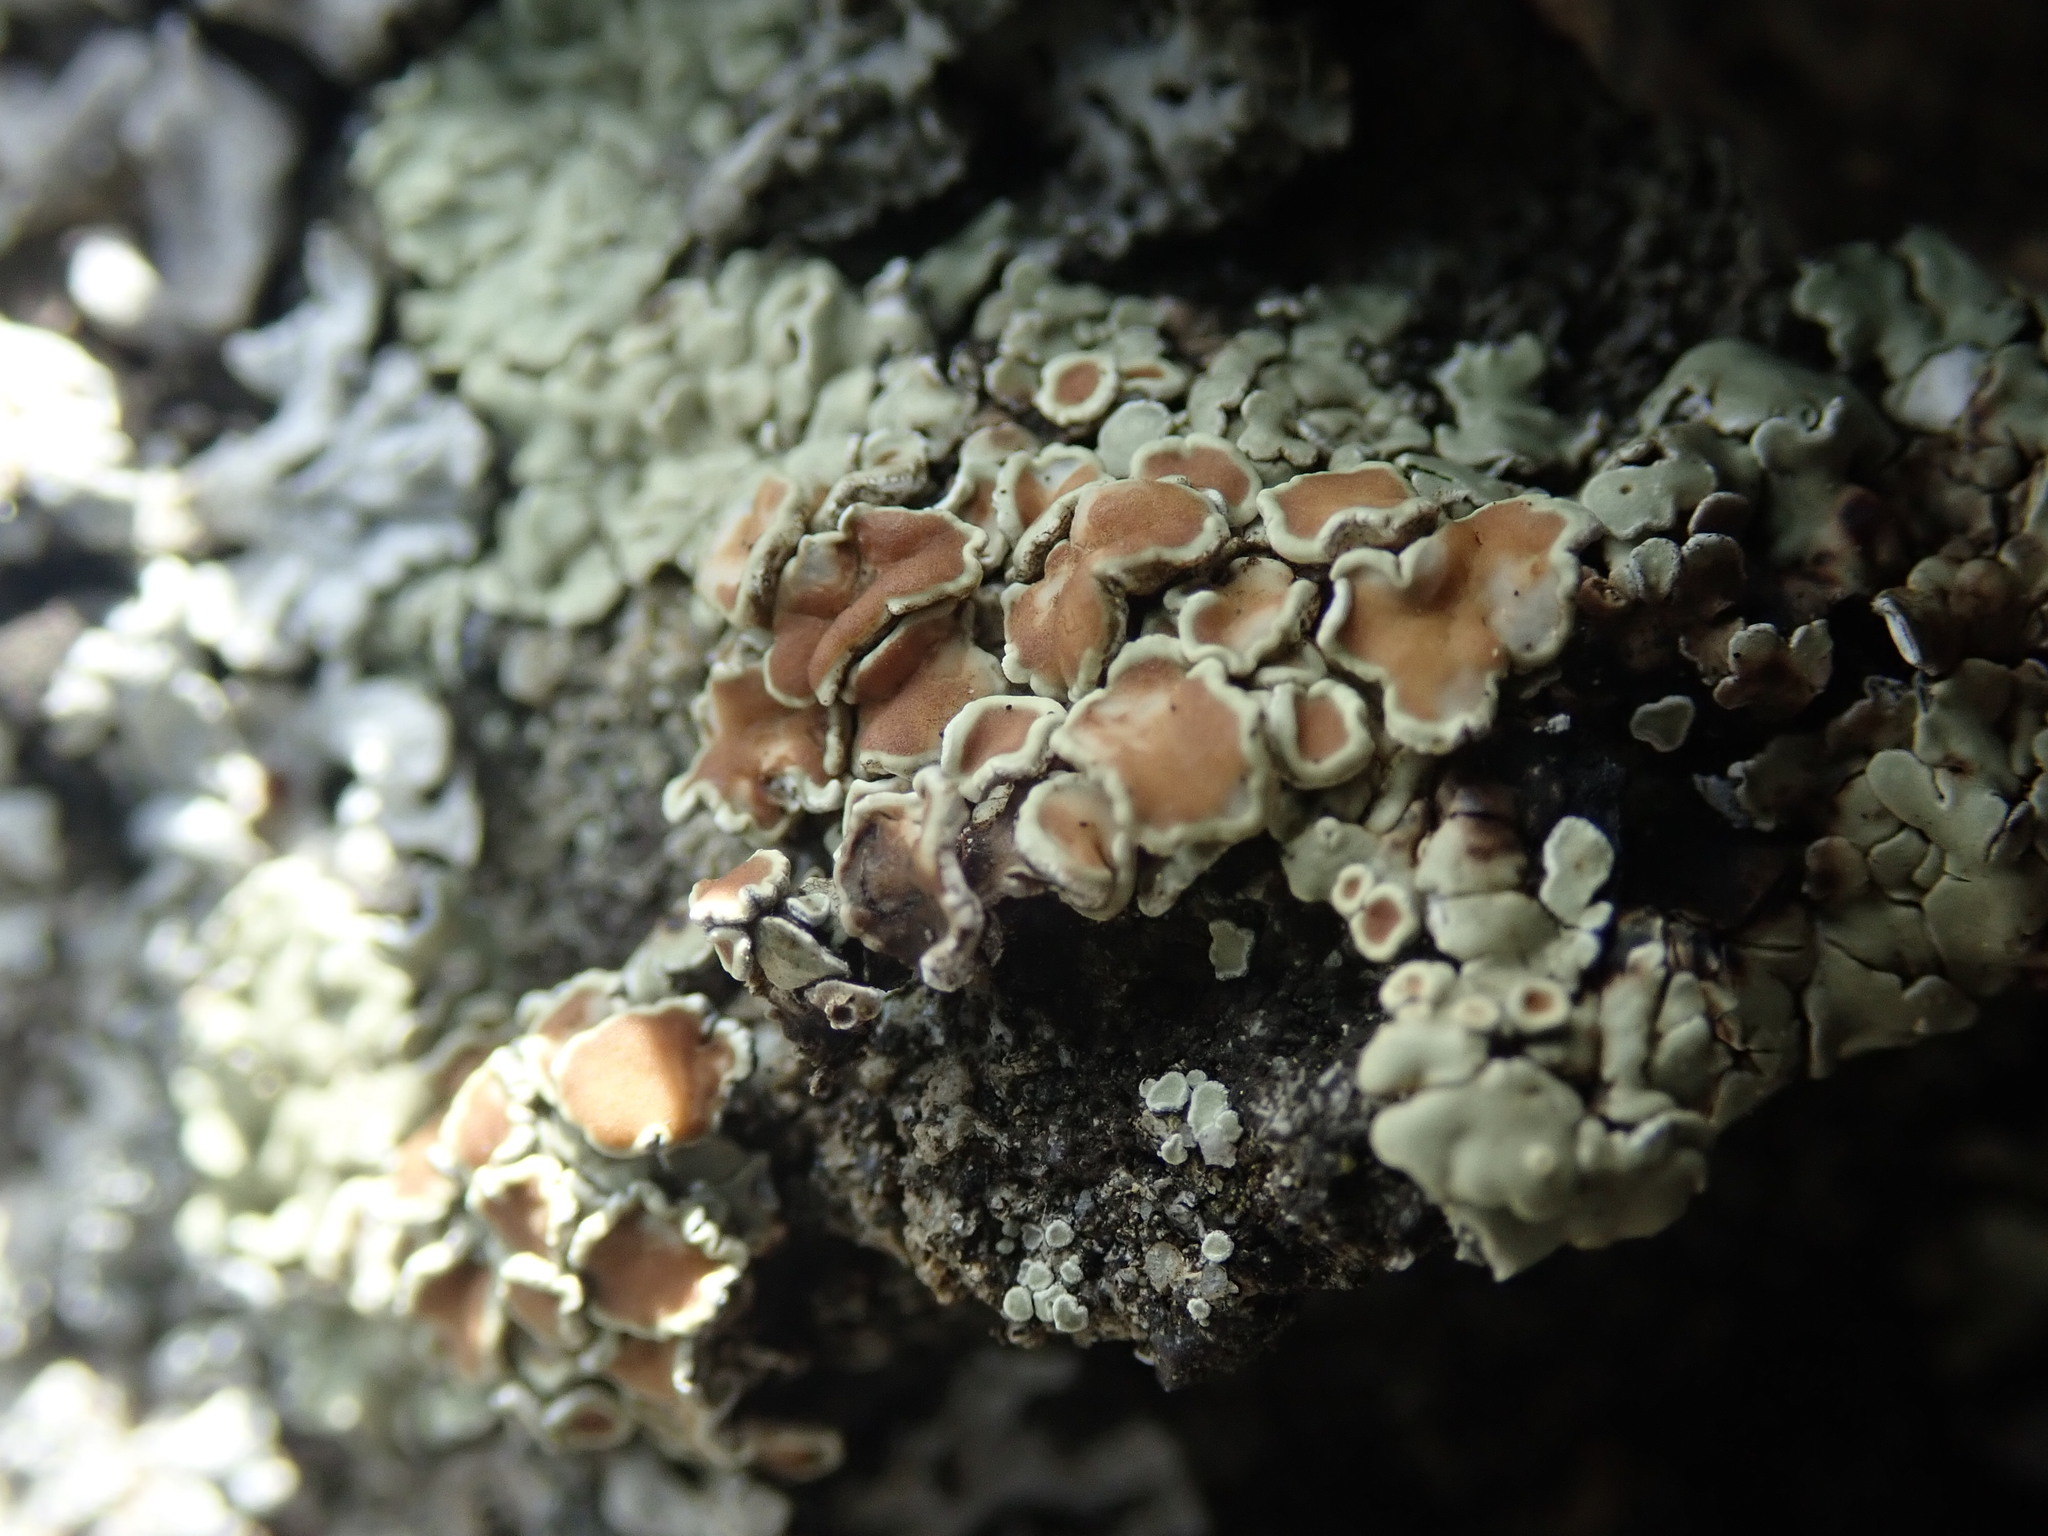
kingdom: Fungi
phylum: Ascomycota
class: Lecanoromycetes
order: Lecanorales
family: Lecanoraceae
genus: Protoparmeliopsis
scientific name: Protoparmeliopsis muralis
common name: Stonewall rim lichen
